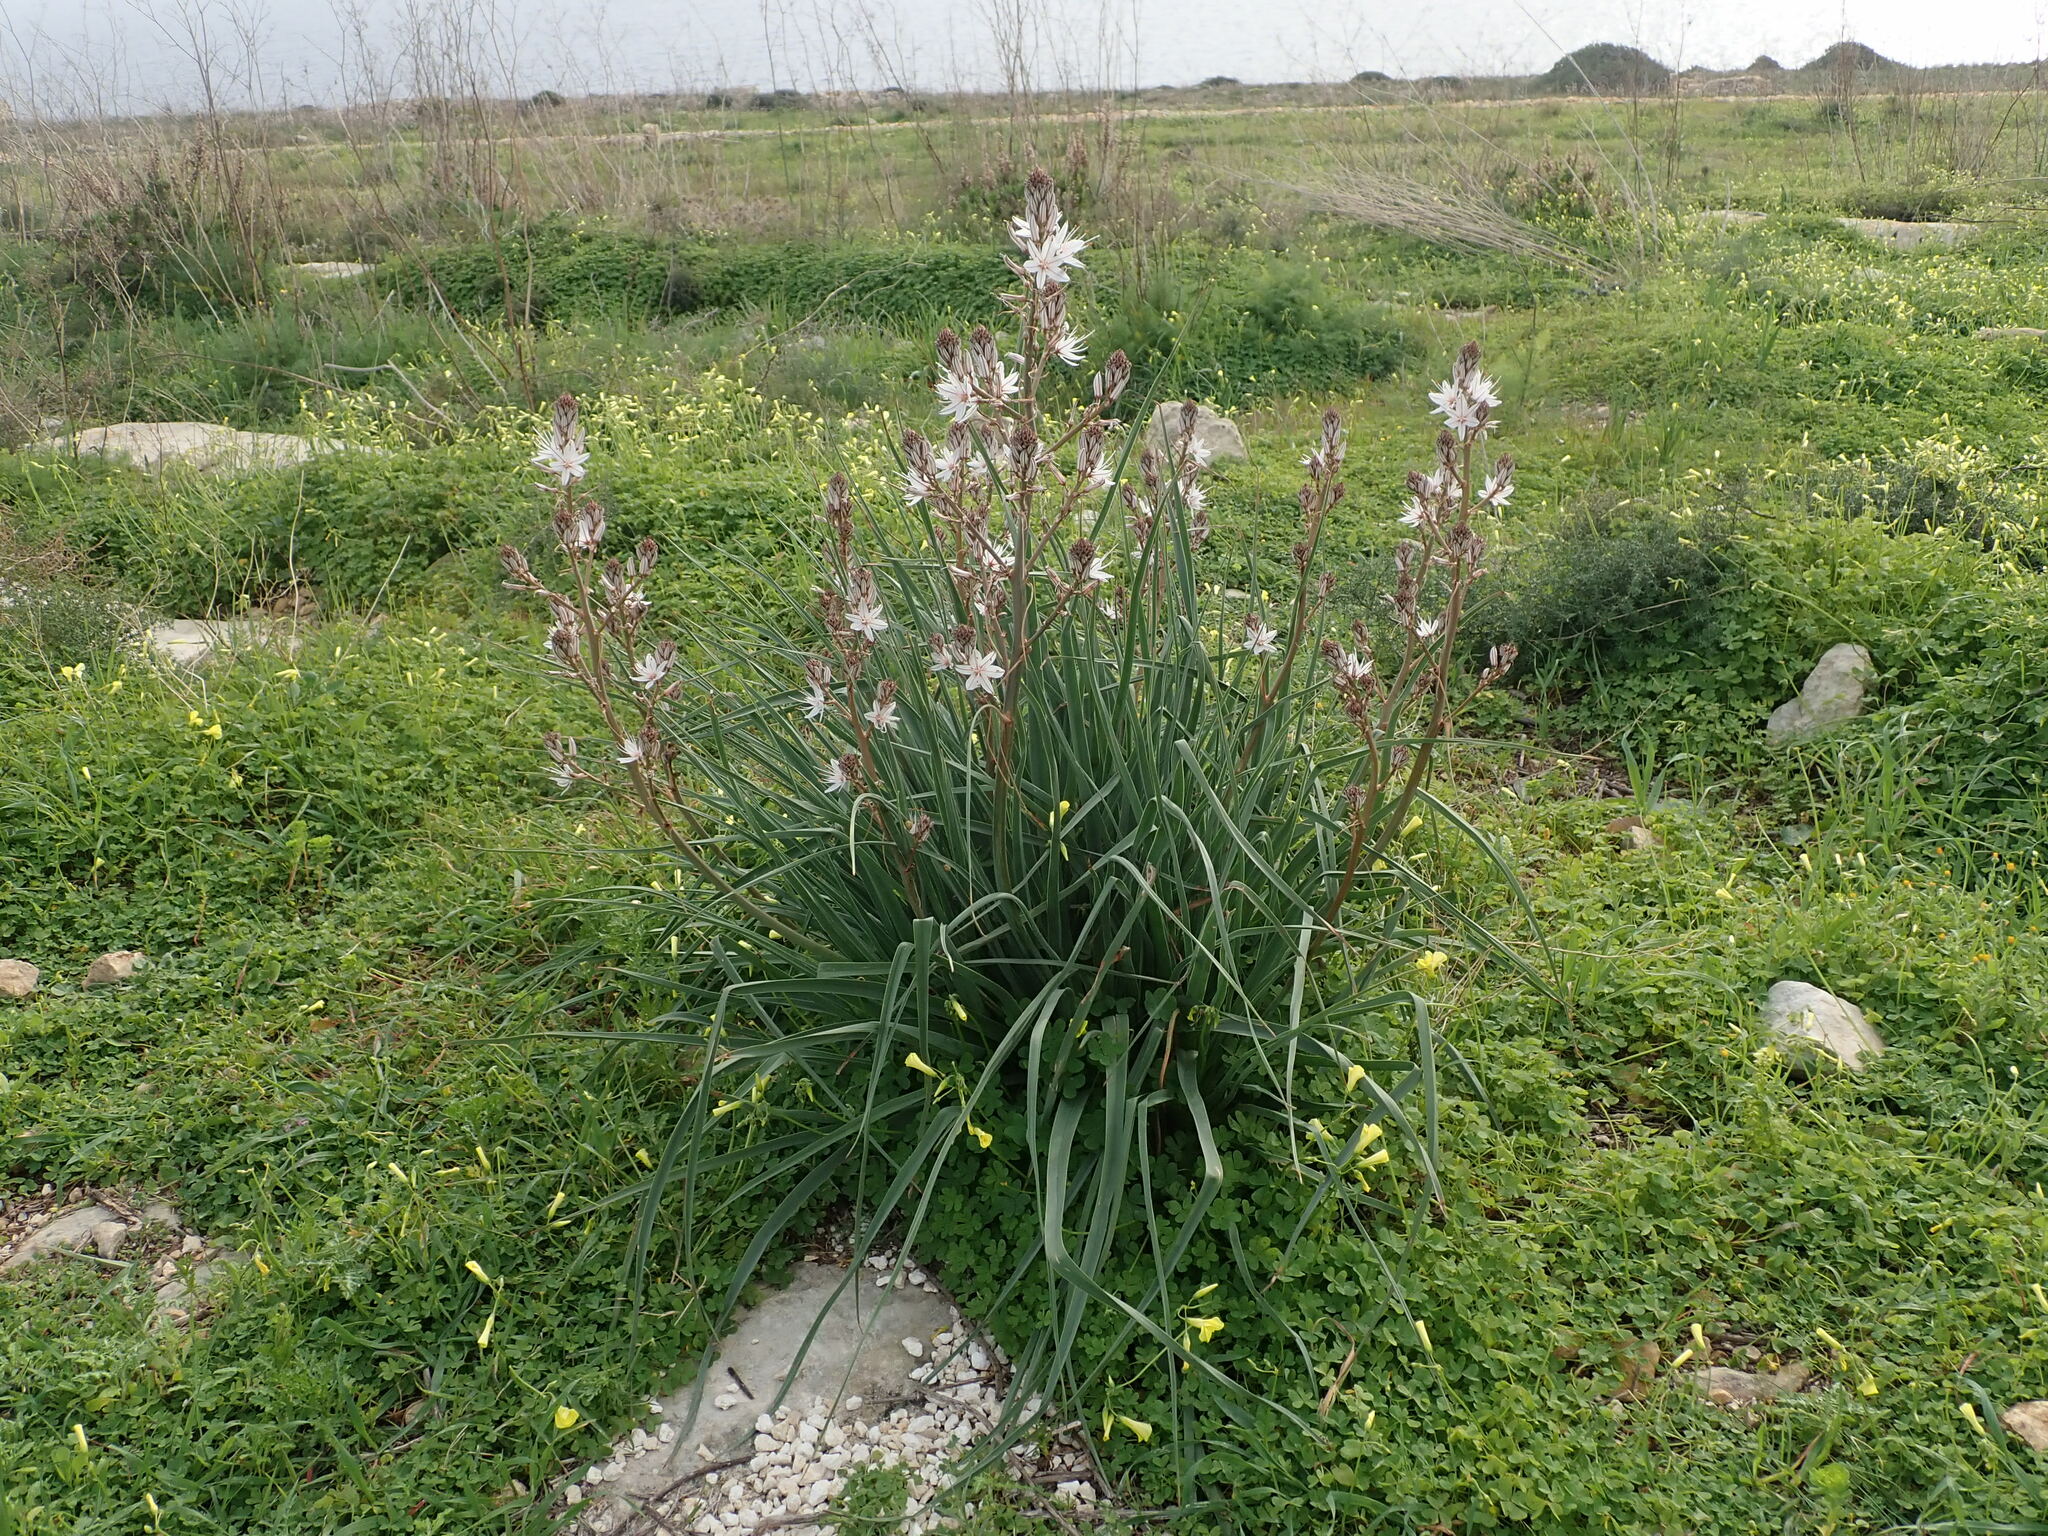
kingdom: Plantae
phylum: Tracheophyta
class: Liliopsida
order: Asparagales
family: Asphodelaceae
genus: Asphodelus
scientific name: Asphodelus ramosus
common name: Silverrod
